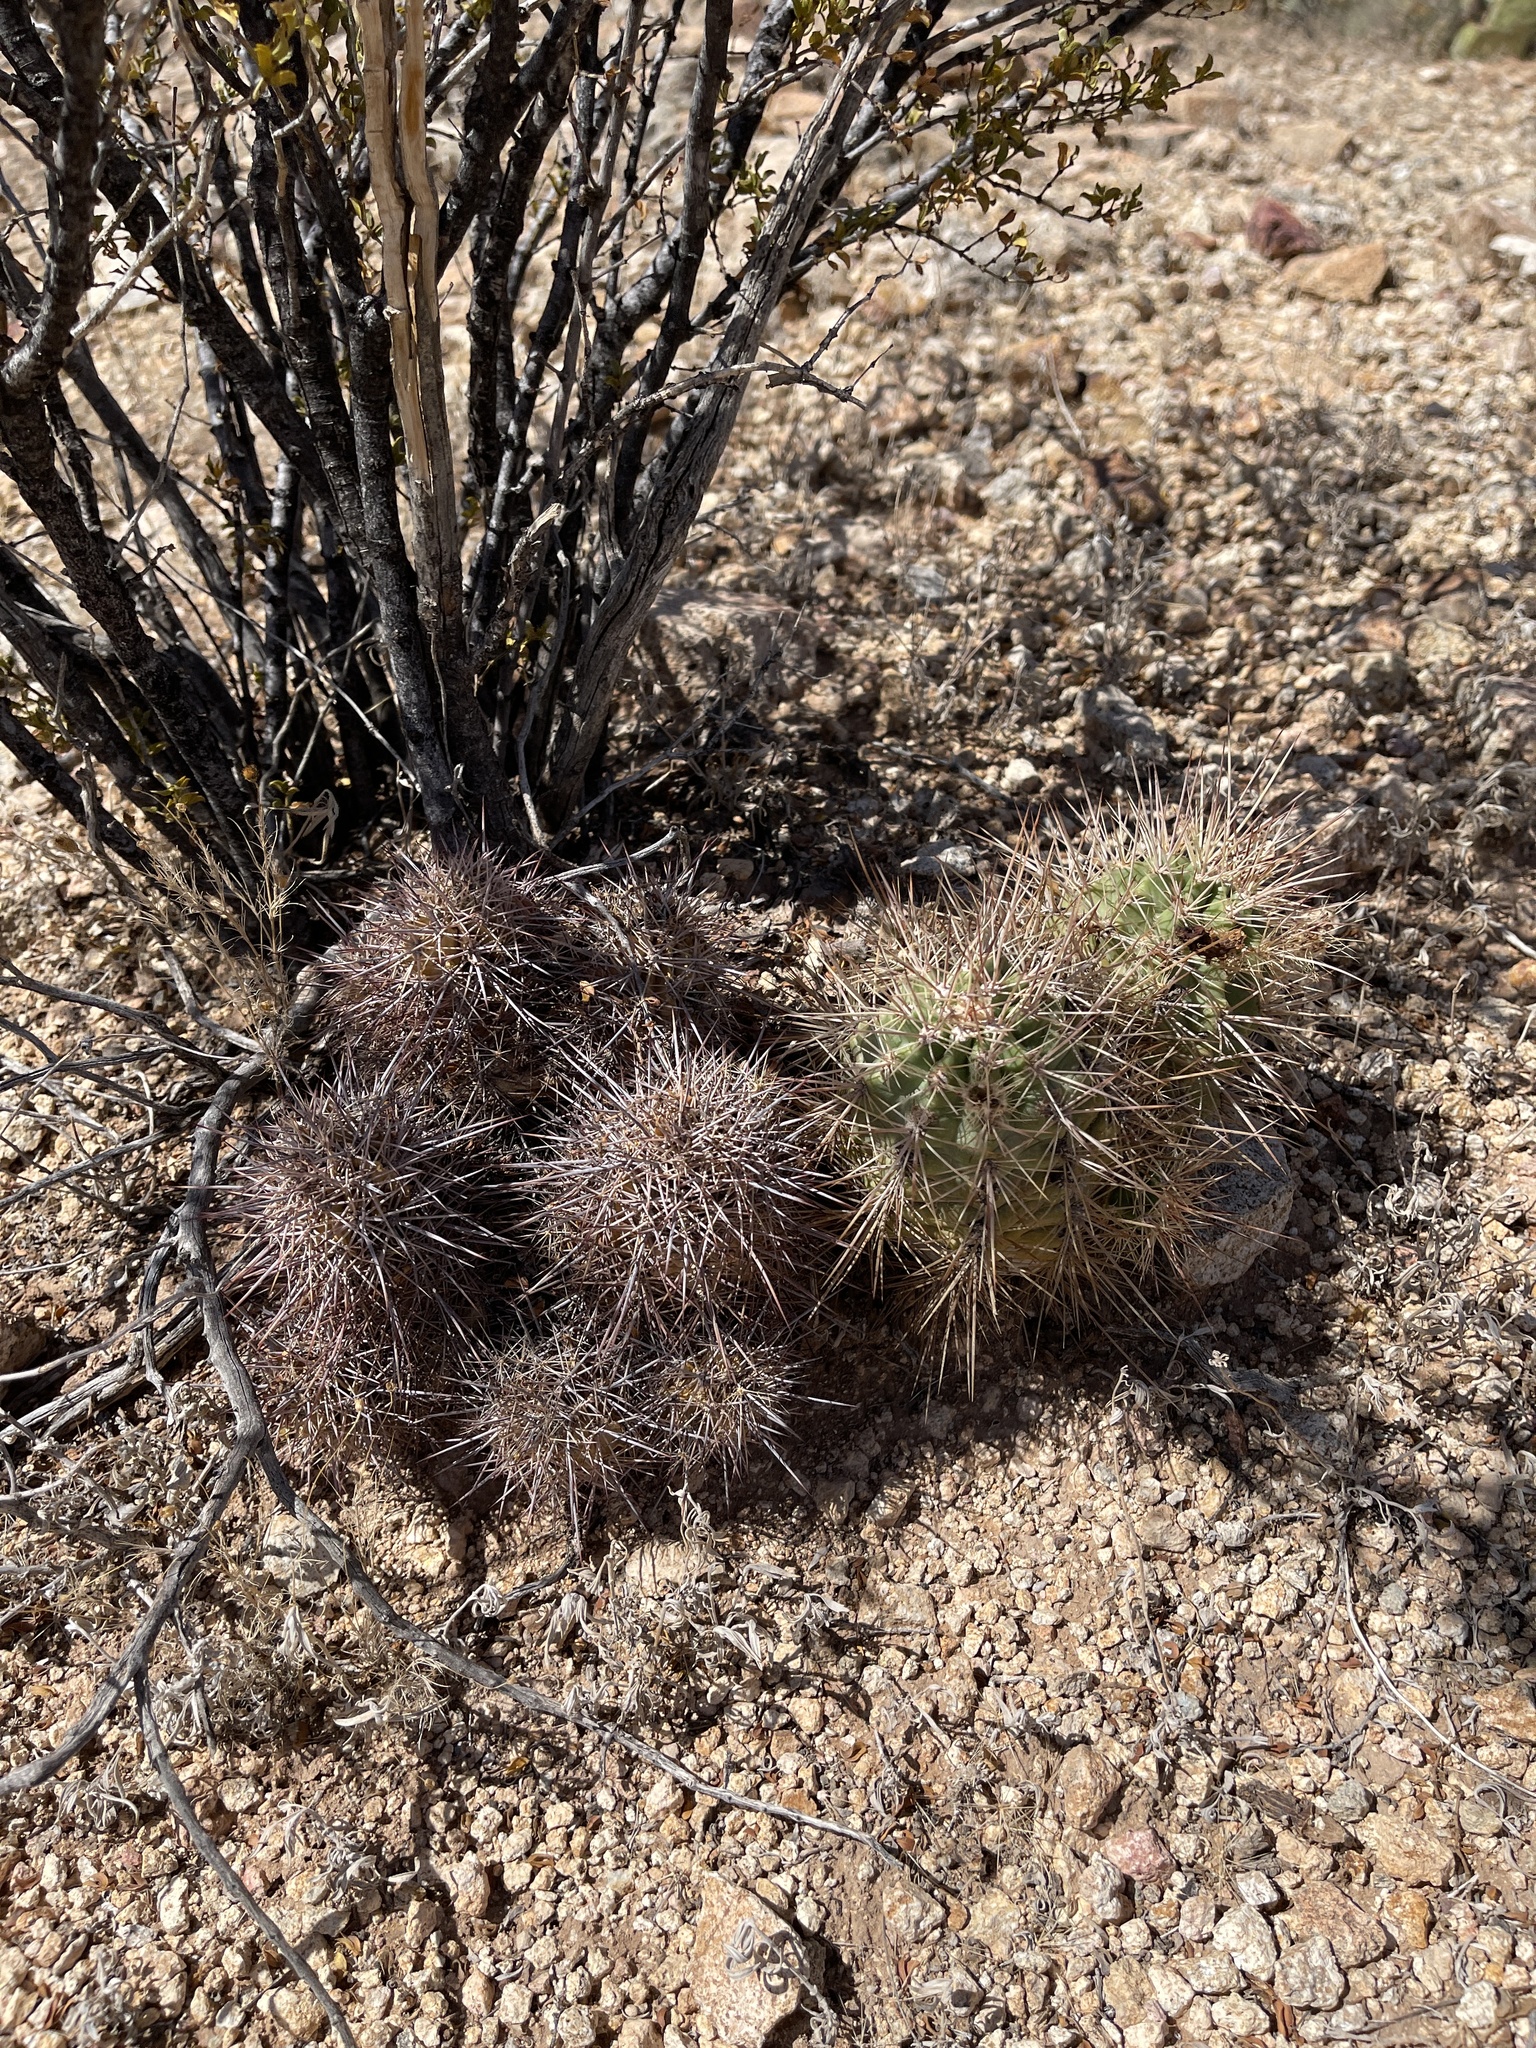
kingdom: Plantae
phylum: Tracheophyta
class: Magnoliopsida
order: Caryophyllales
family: Cactaceae
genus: Echinocereus
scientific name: Echinocereus coccineus
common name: Scarlet hedgehog cactus
